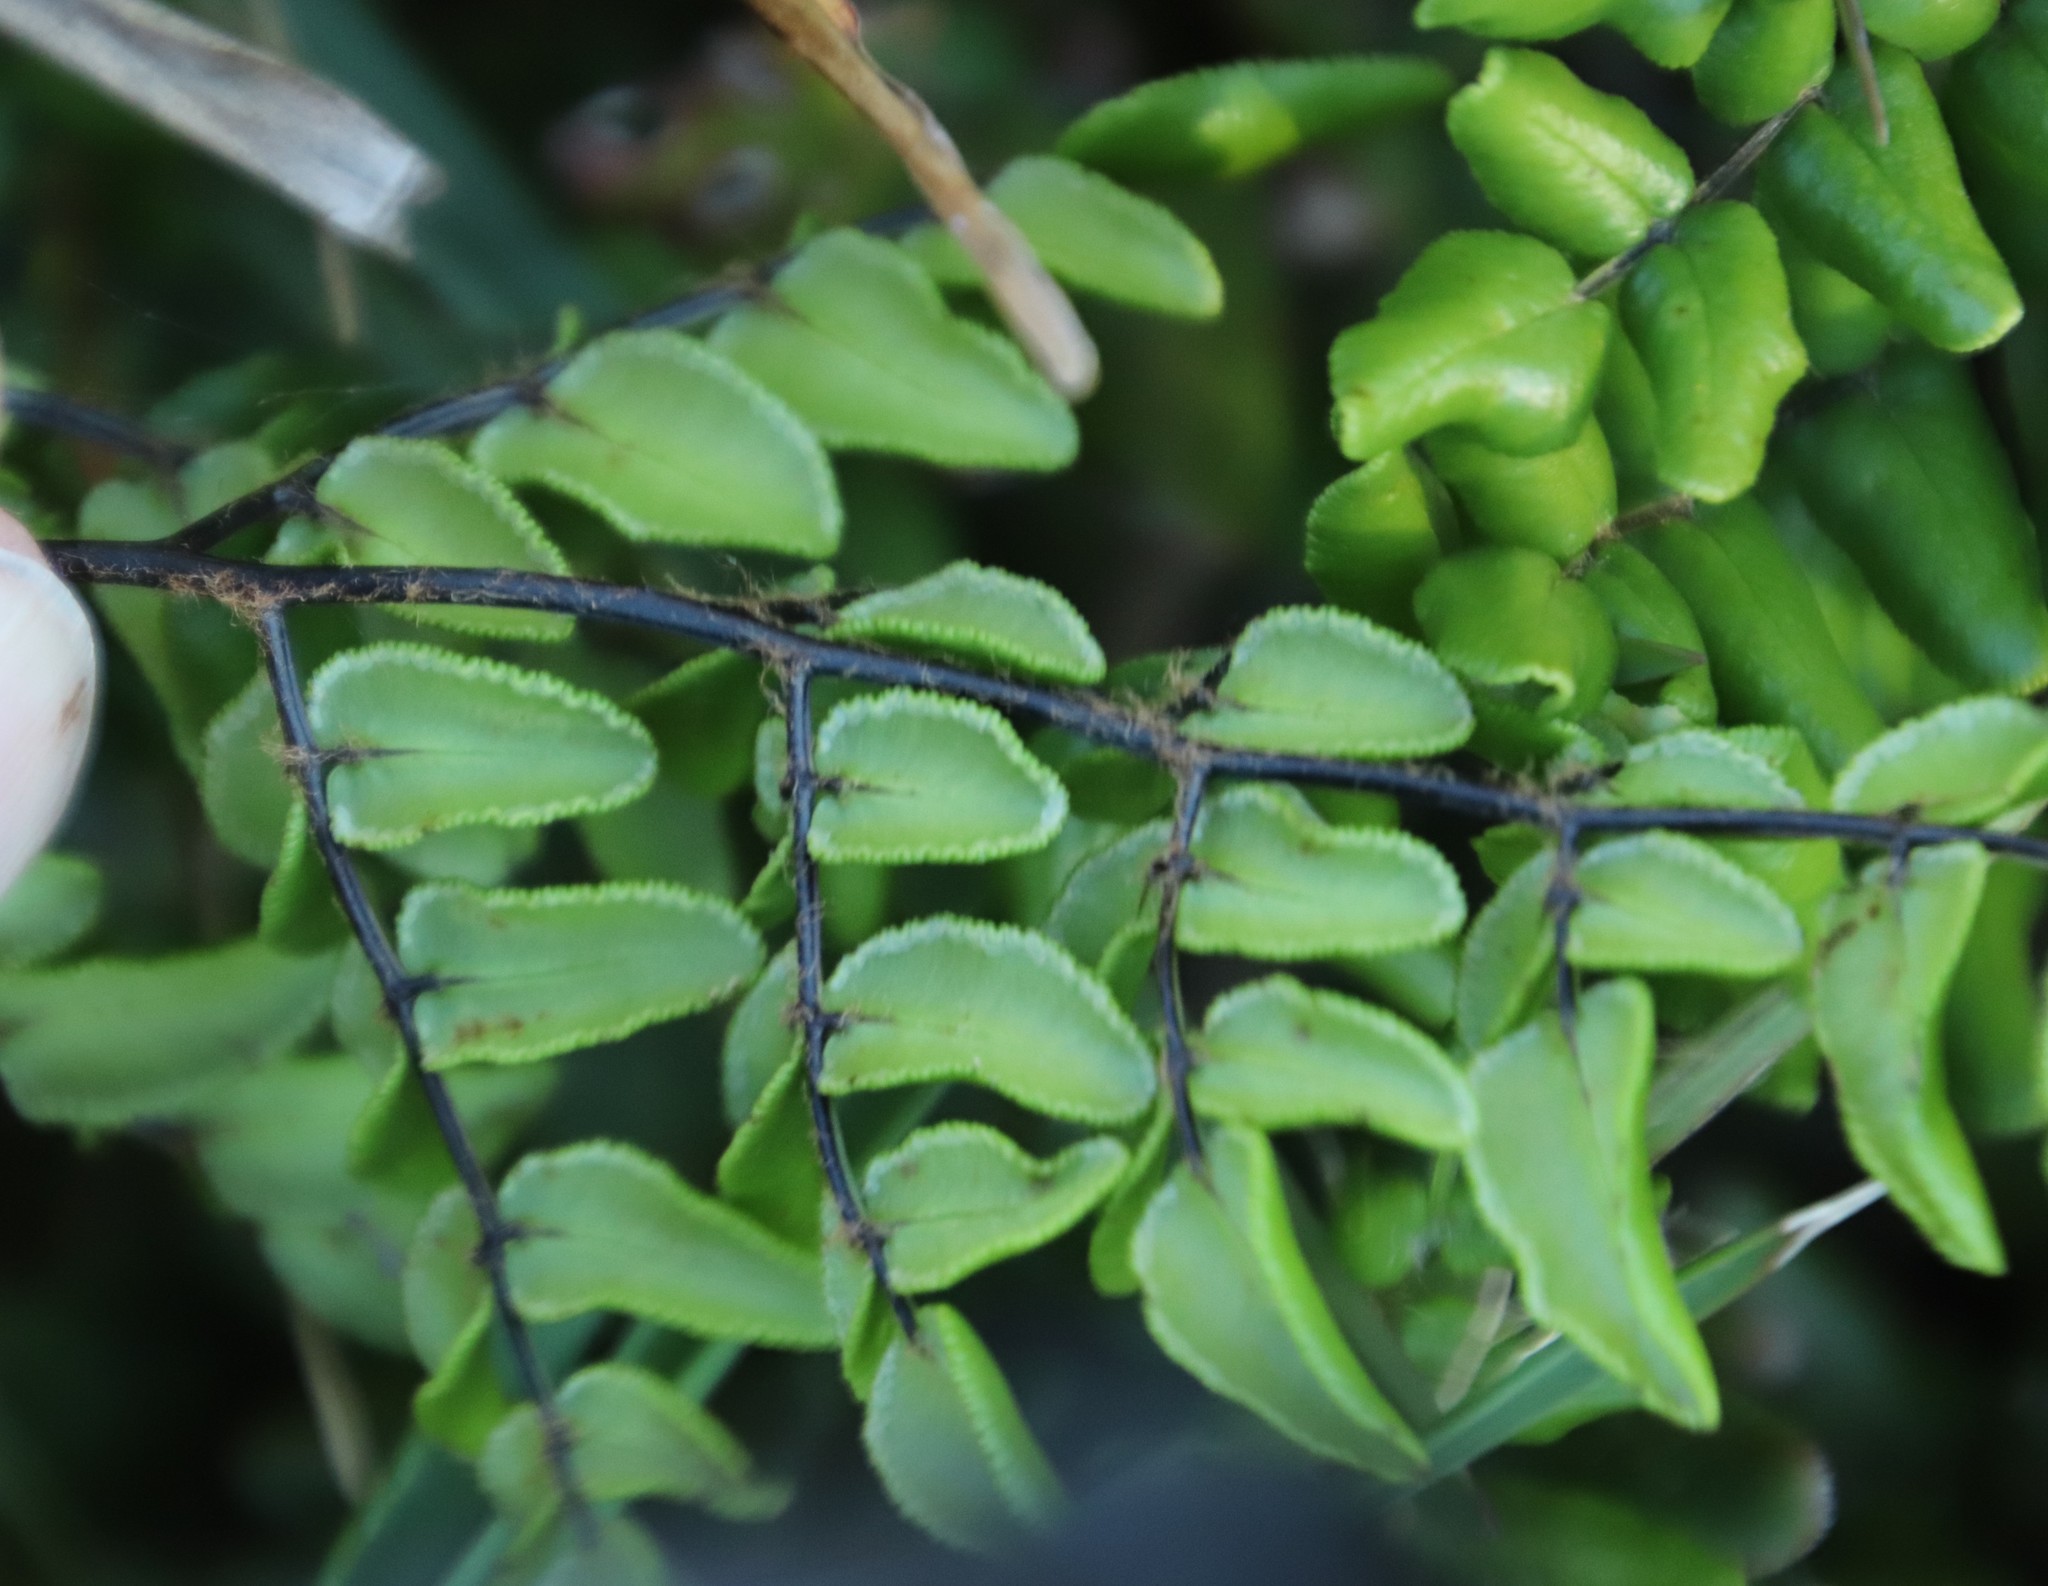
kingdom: Plantae
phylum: Tracheophyta
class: Polypodiopsida
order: Polypodiales
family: Pteridaceae
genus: Pellaea
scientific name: Pellaea pteroides
